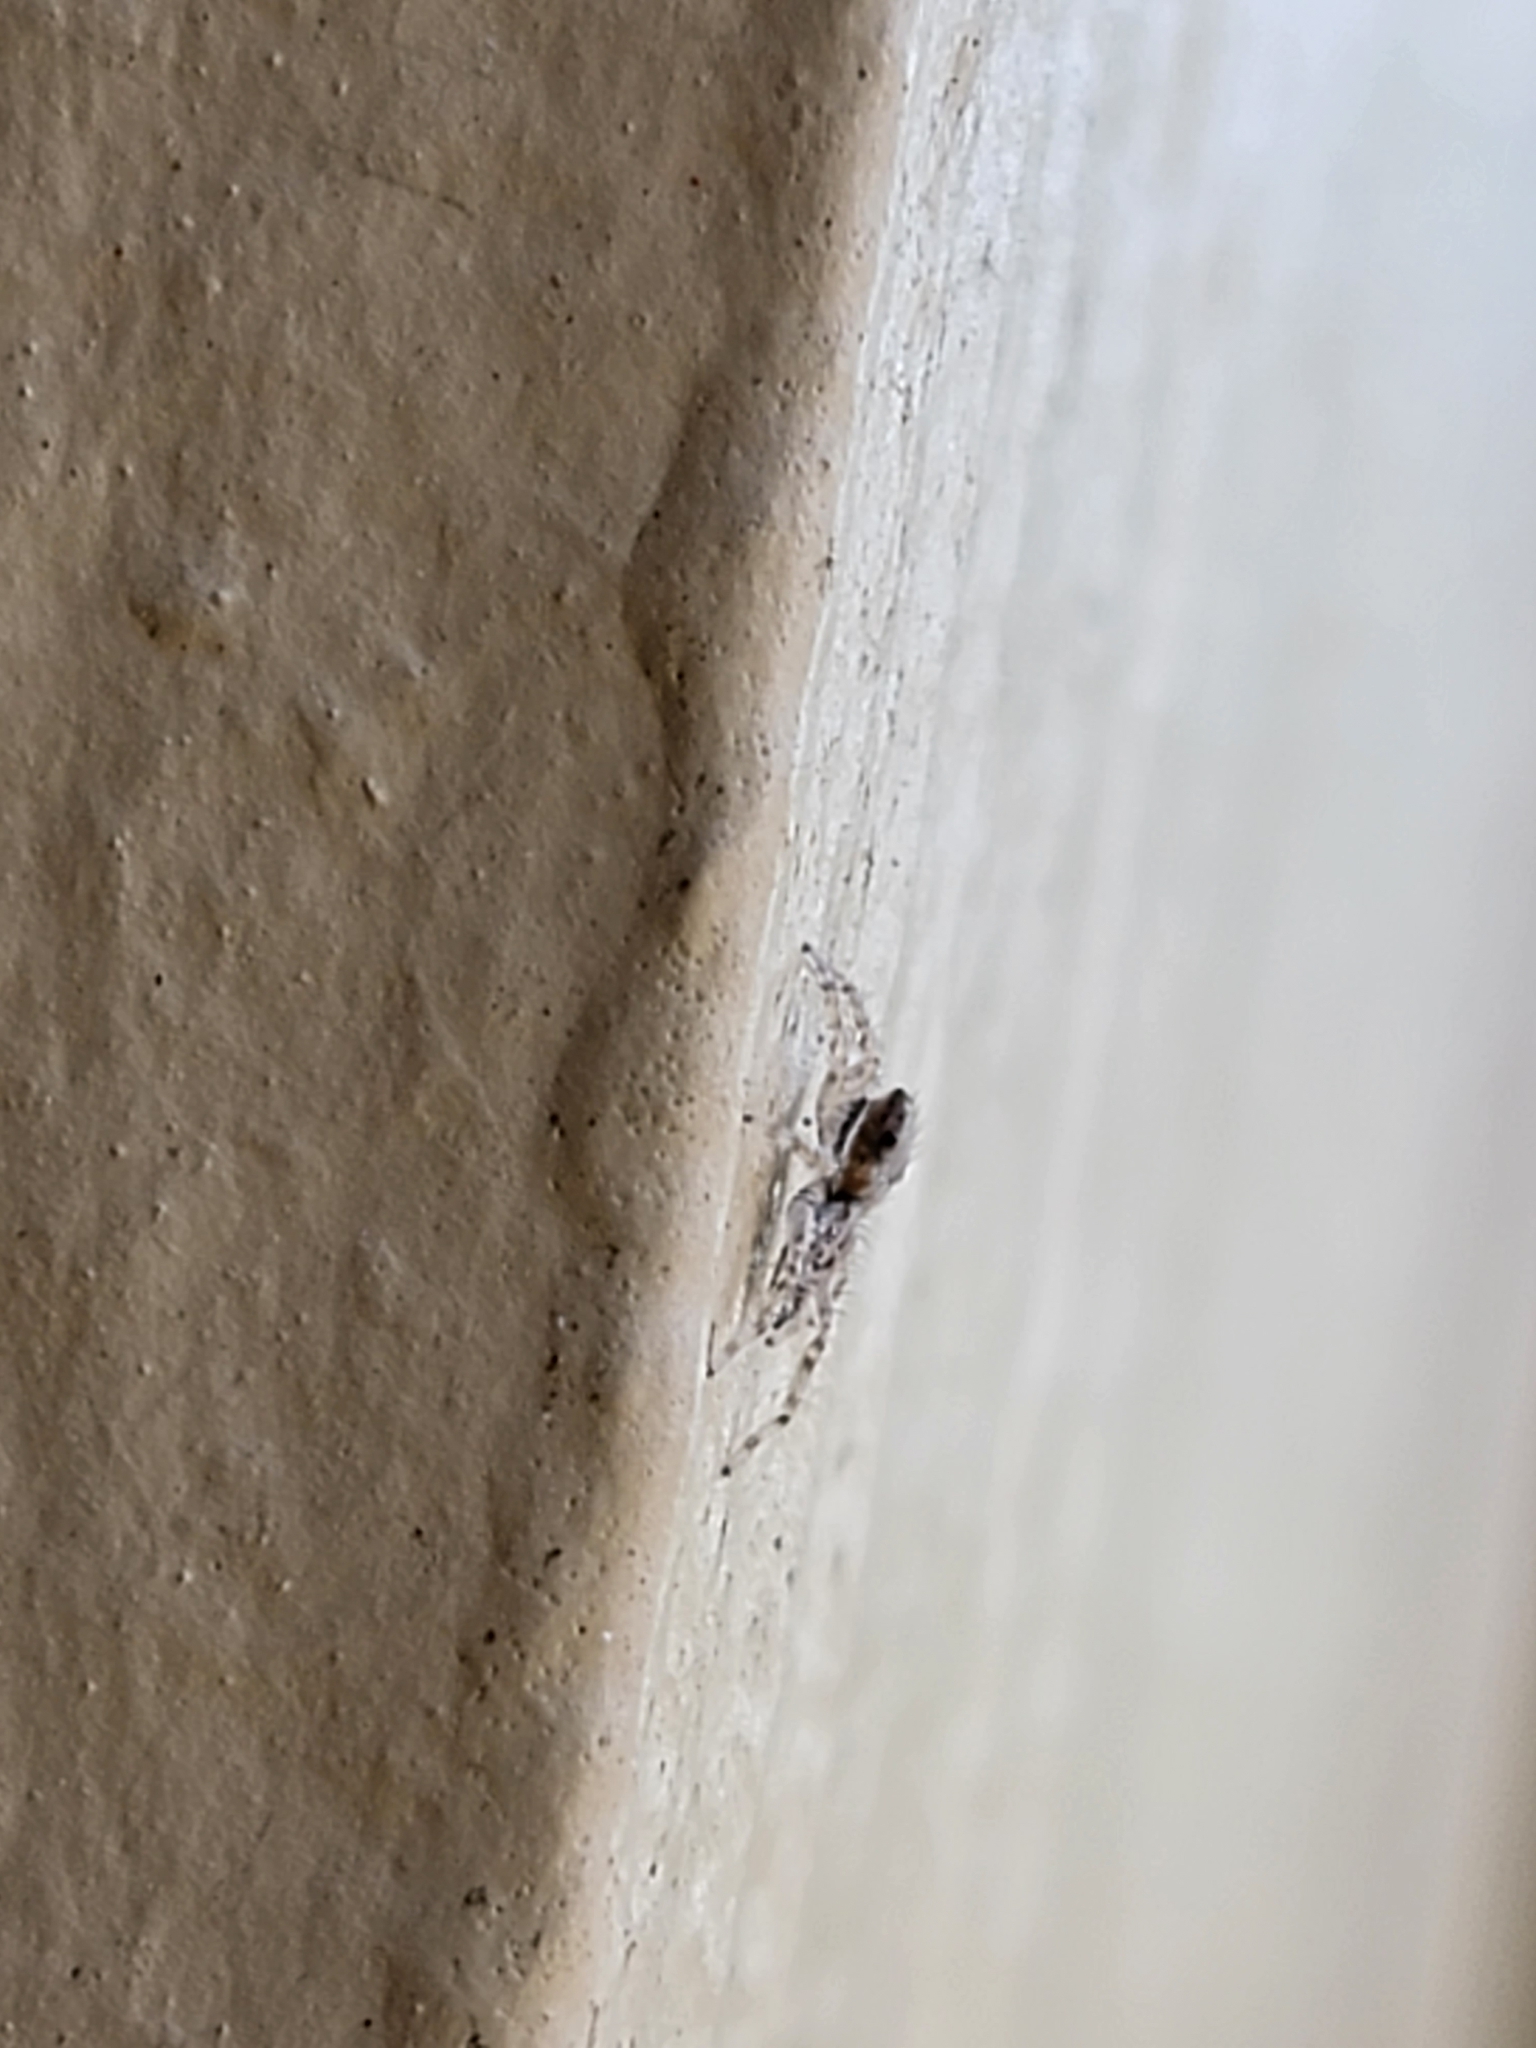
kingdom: Animalia
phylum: Arthropoda
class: Arachnida
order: Araneae
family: Salticidae
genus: Menemerus
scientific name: Menemerus bivittatus
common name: Gray wall jumper
